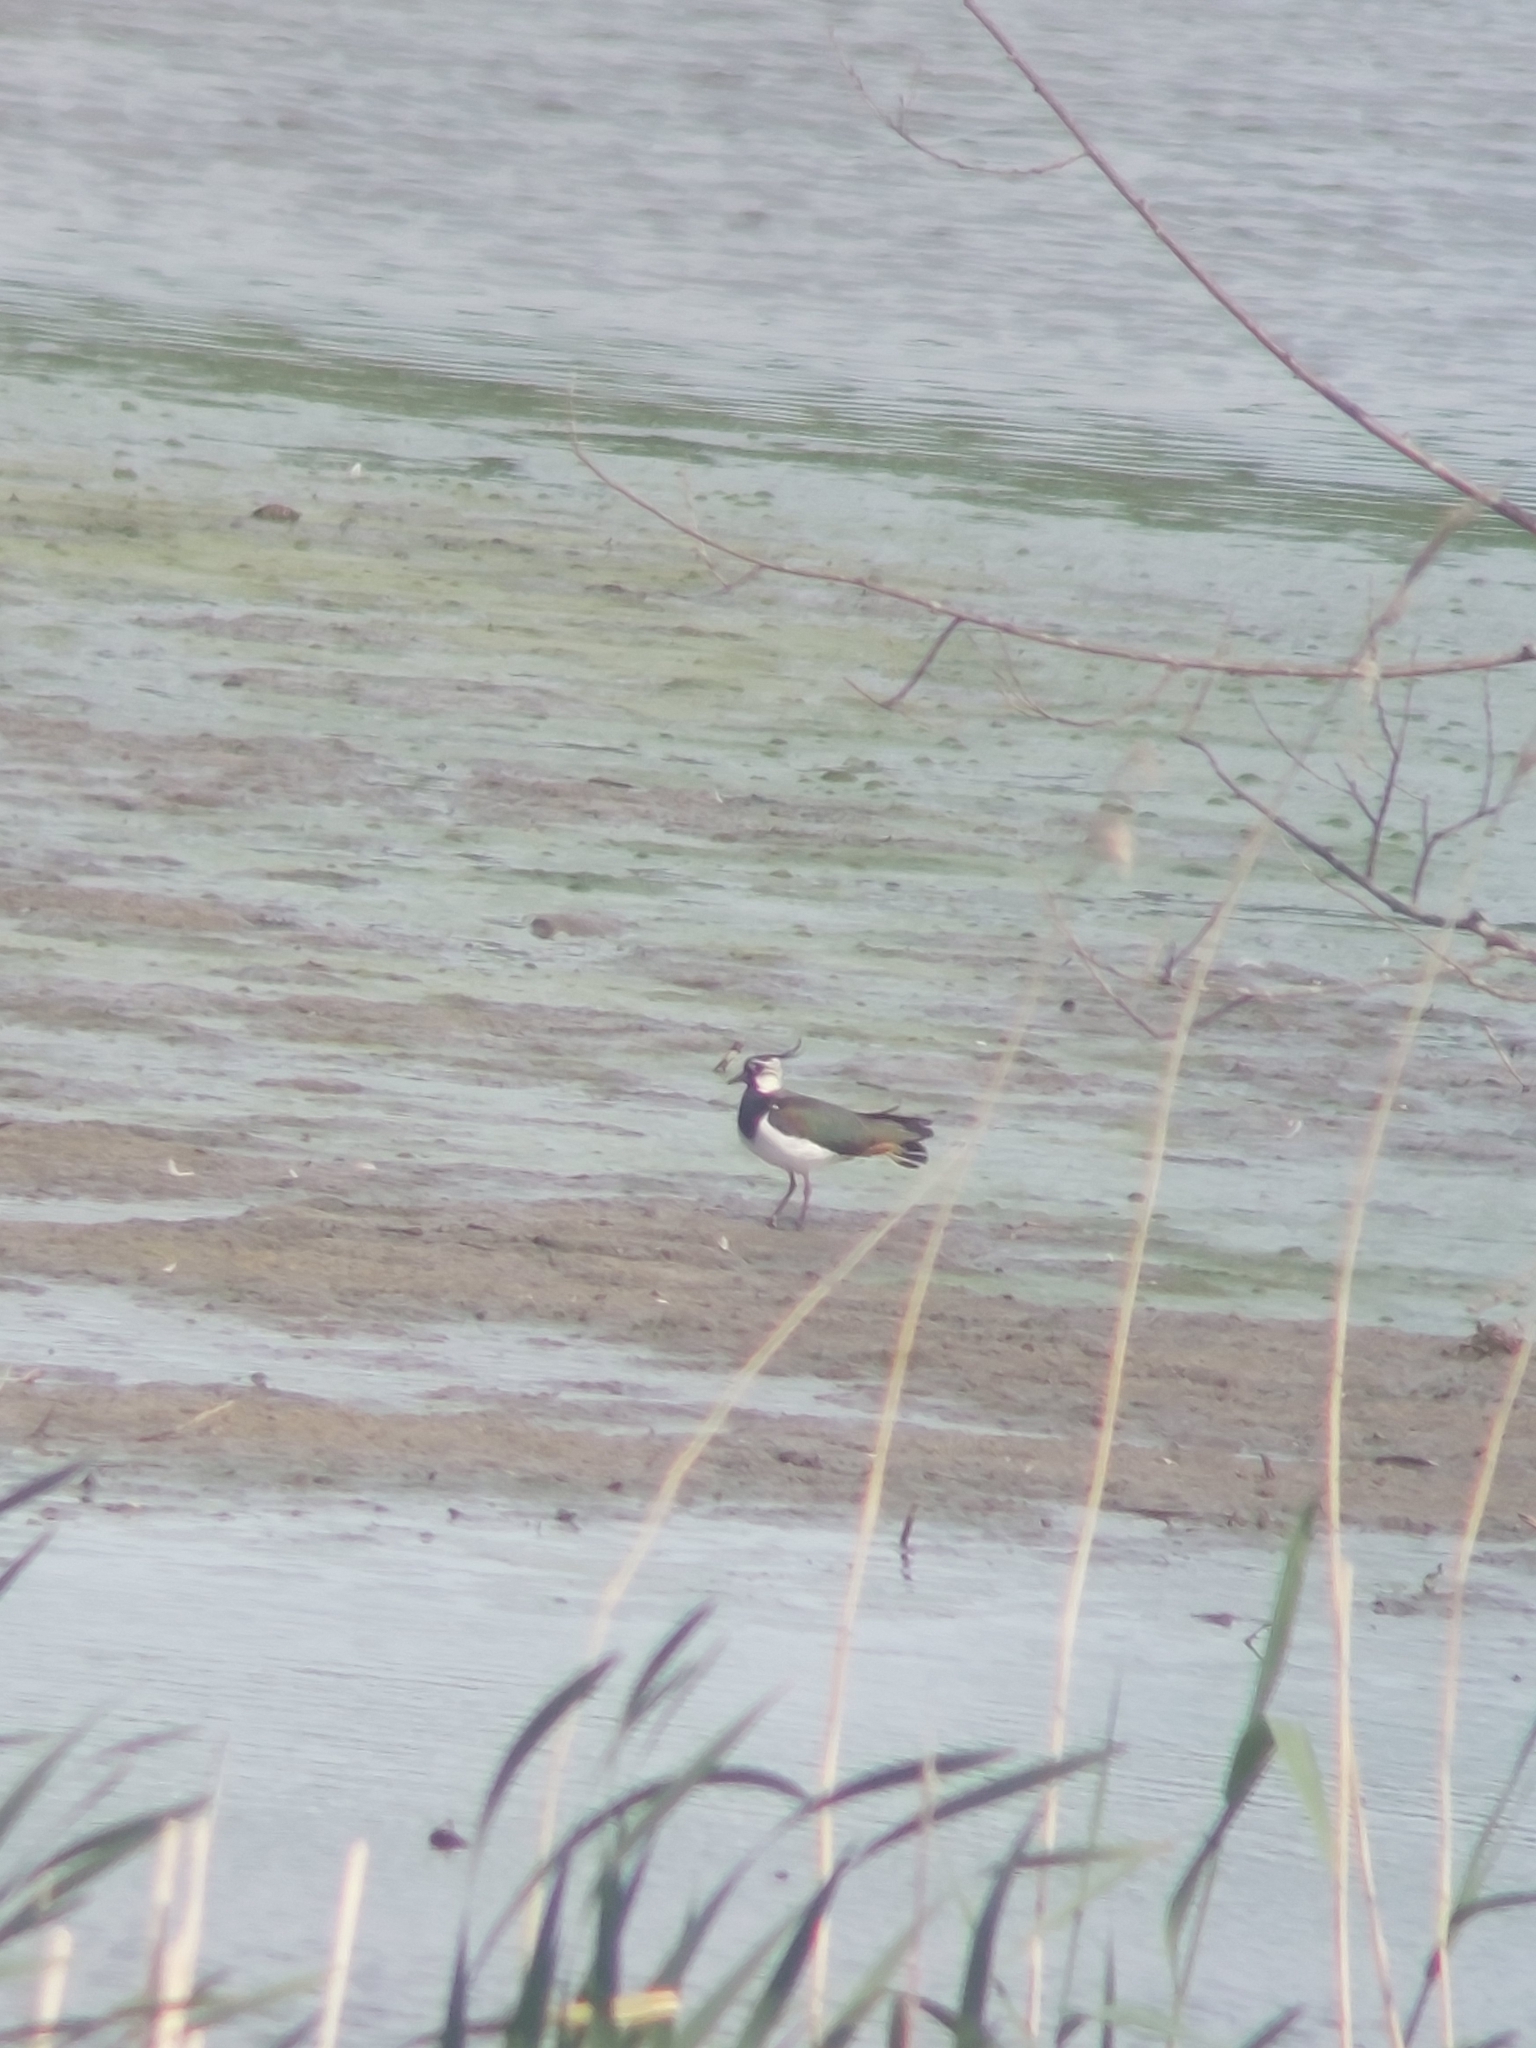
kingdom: Animalia
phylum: Chordata
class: Aves
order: Charadriiformes
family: Charadriidae
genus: Vanellus
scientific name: Vanellus vanellus
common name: Northern lapwing
